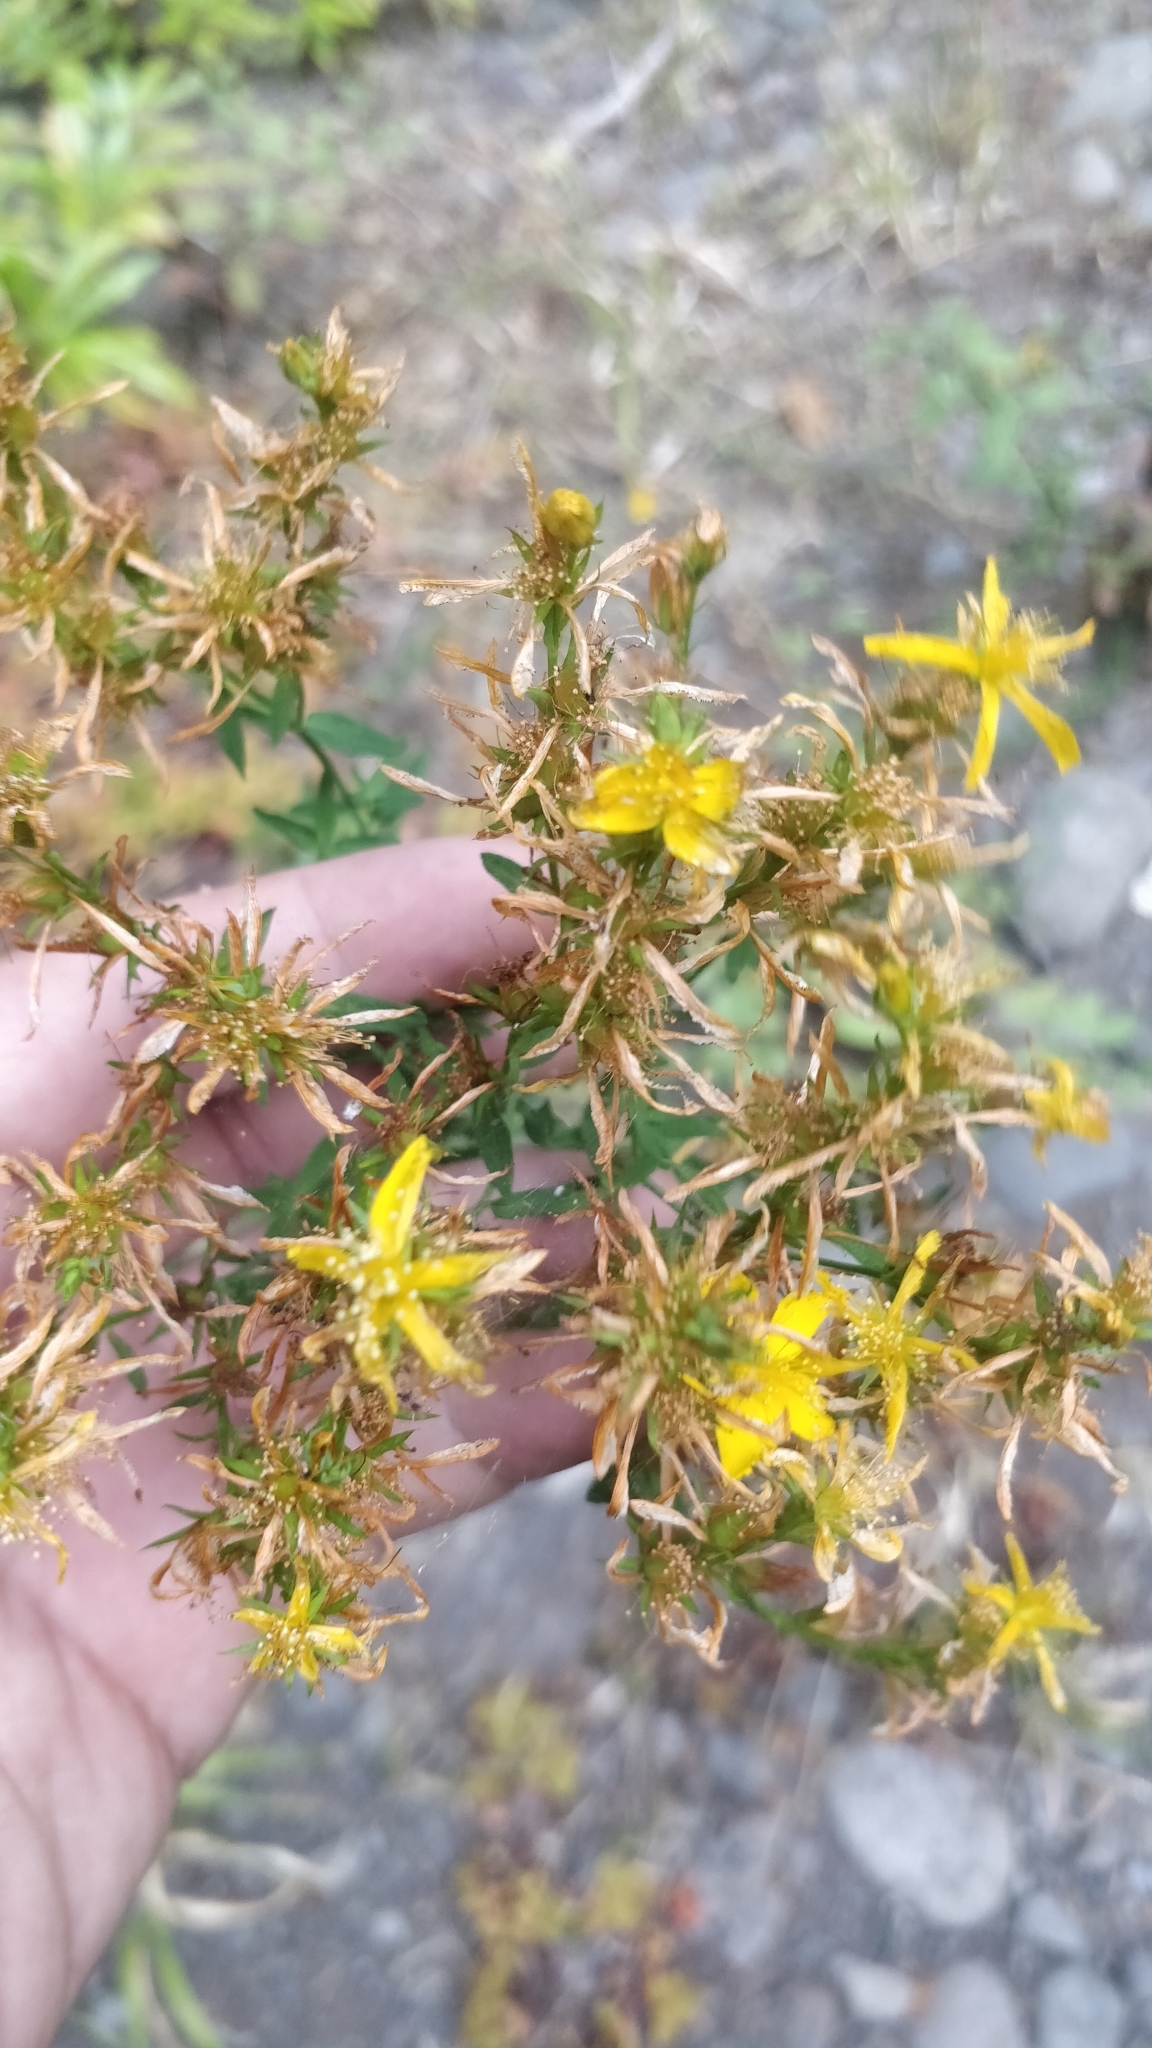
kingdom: Plantae
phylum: Tracheophyta
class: Magnoliopsida
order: Malpighiales
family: Hypericaceae
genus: Hypericum
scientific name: Hypericum veronense
